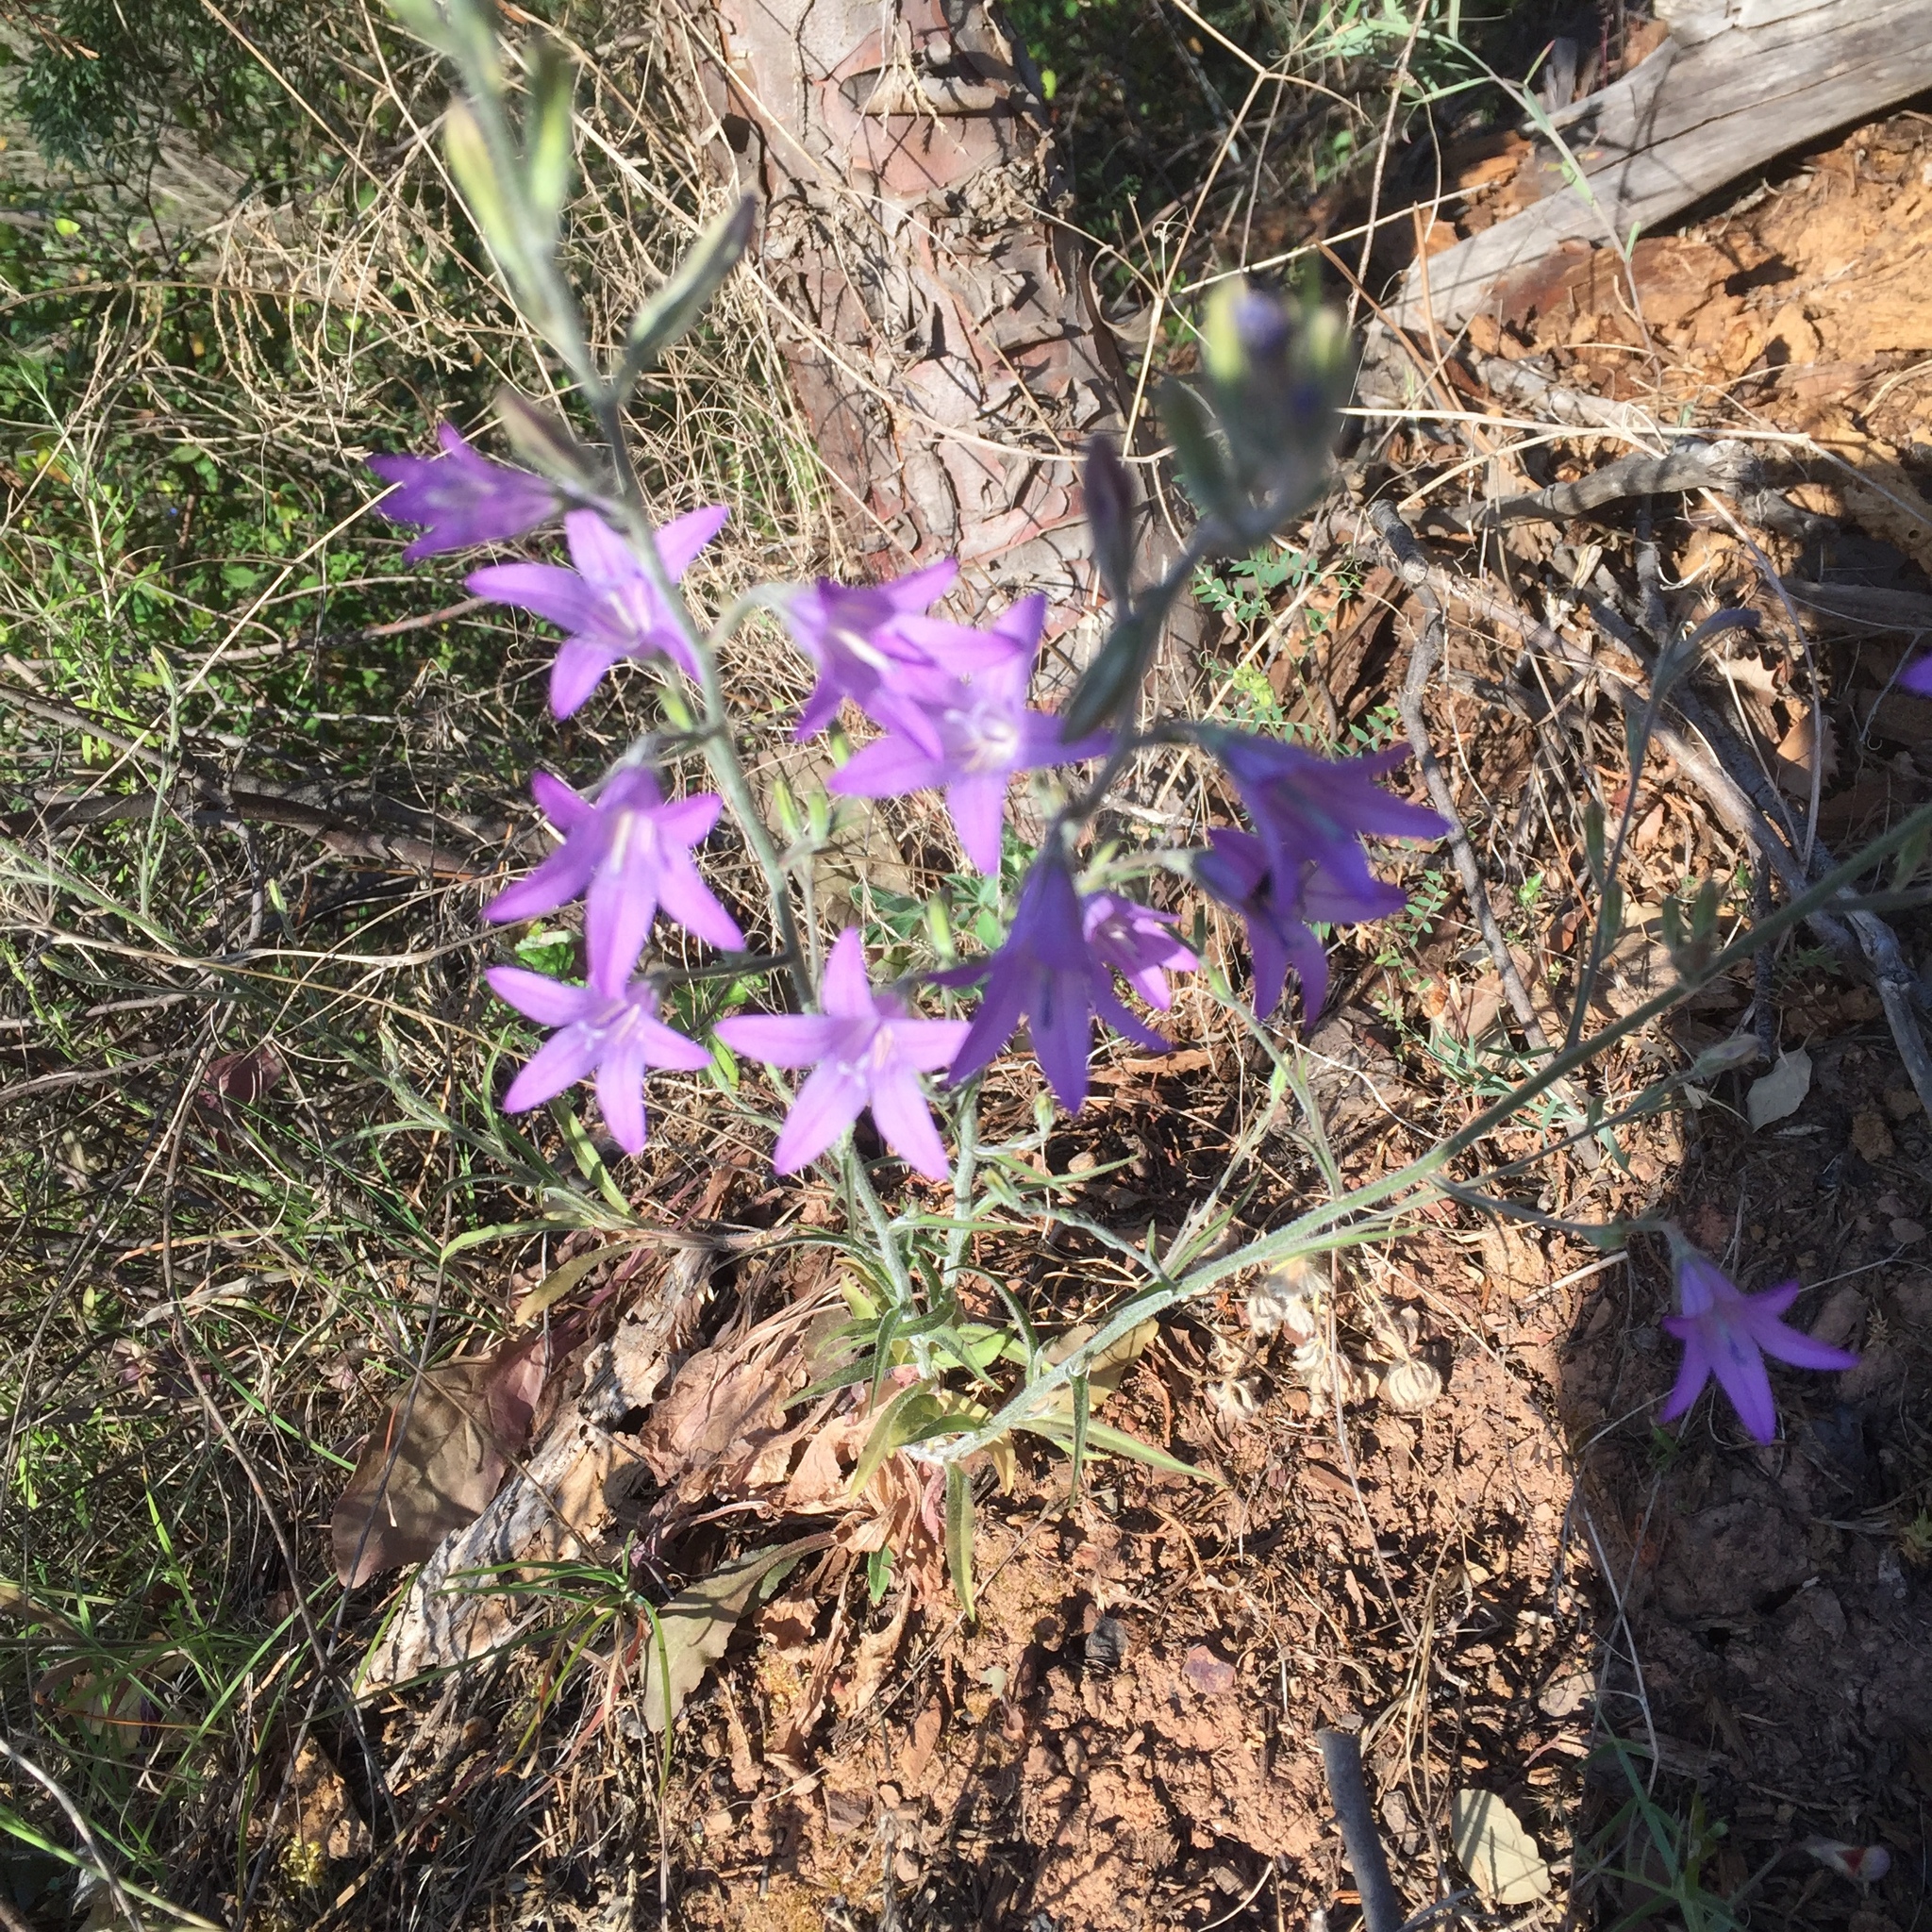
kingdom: Plantae
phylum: Tracheophyta
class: Magnoliopsida
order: Asterales
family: Campanulaceae
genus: Campanula
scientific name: Campanula rapunculus
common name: Rampion bellflower
